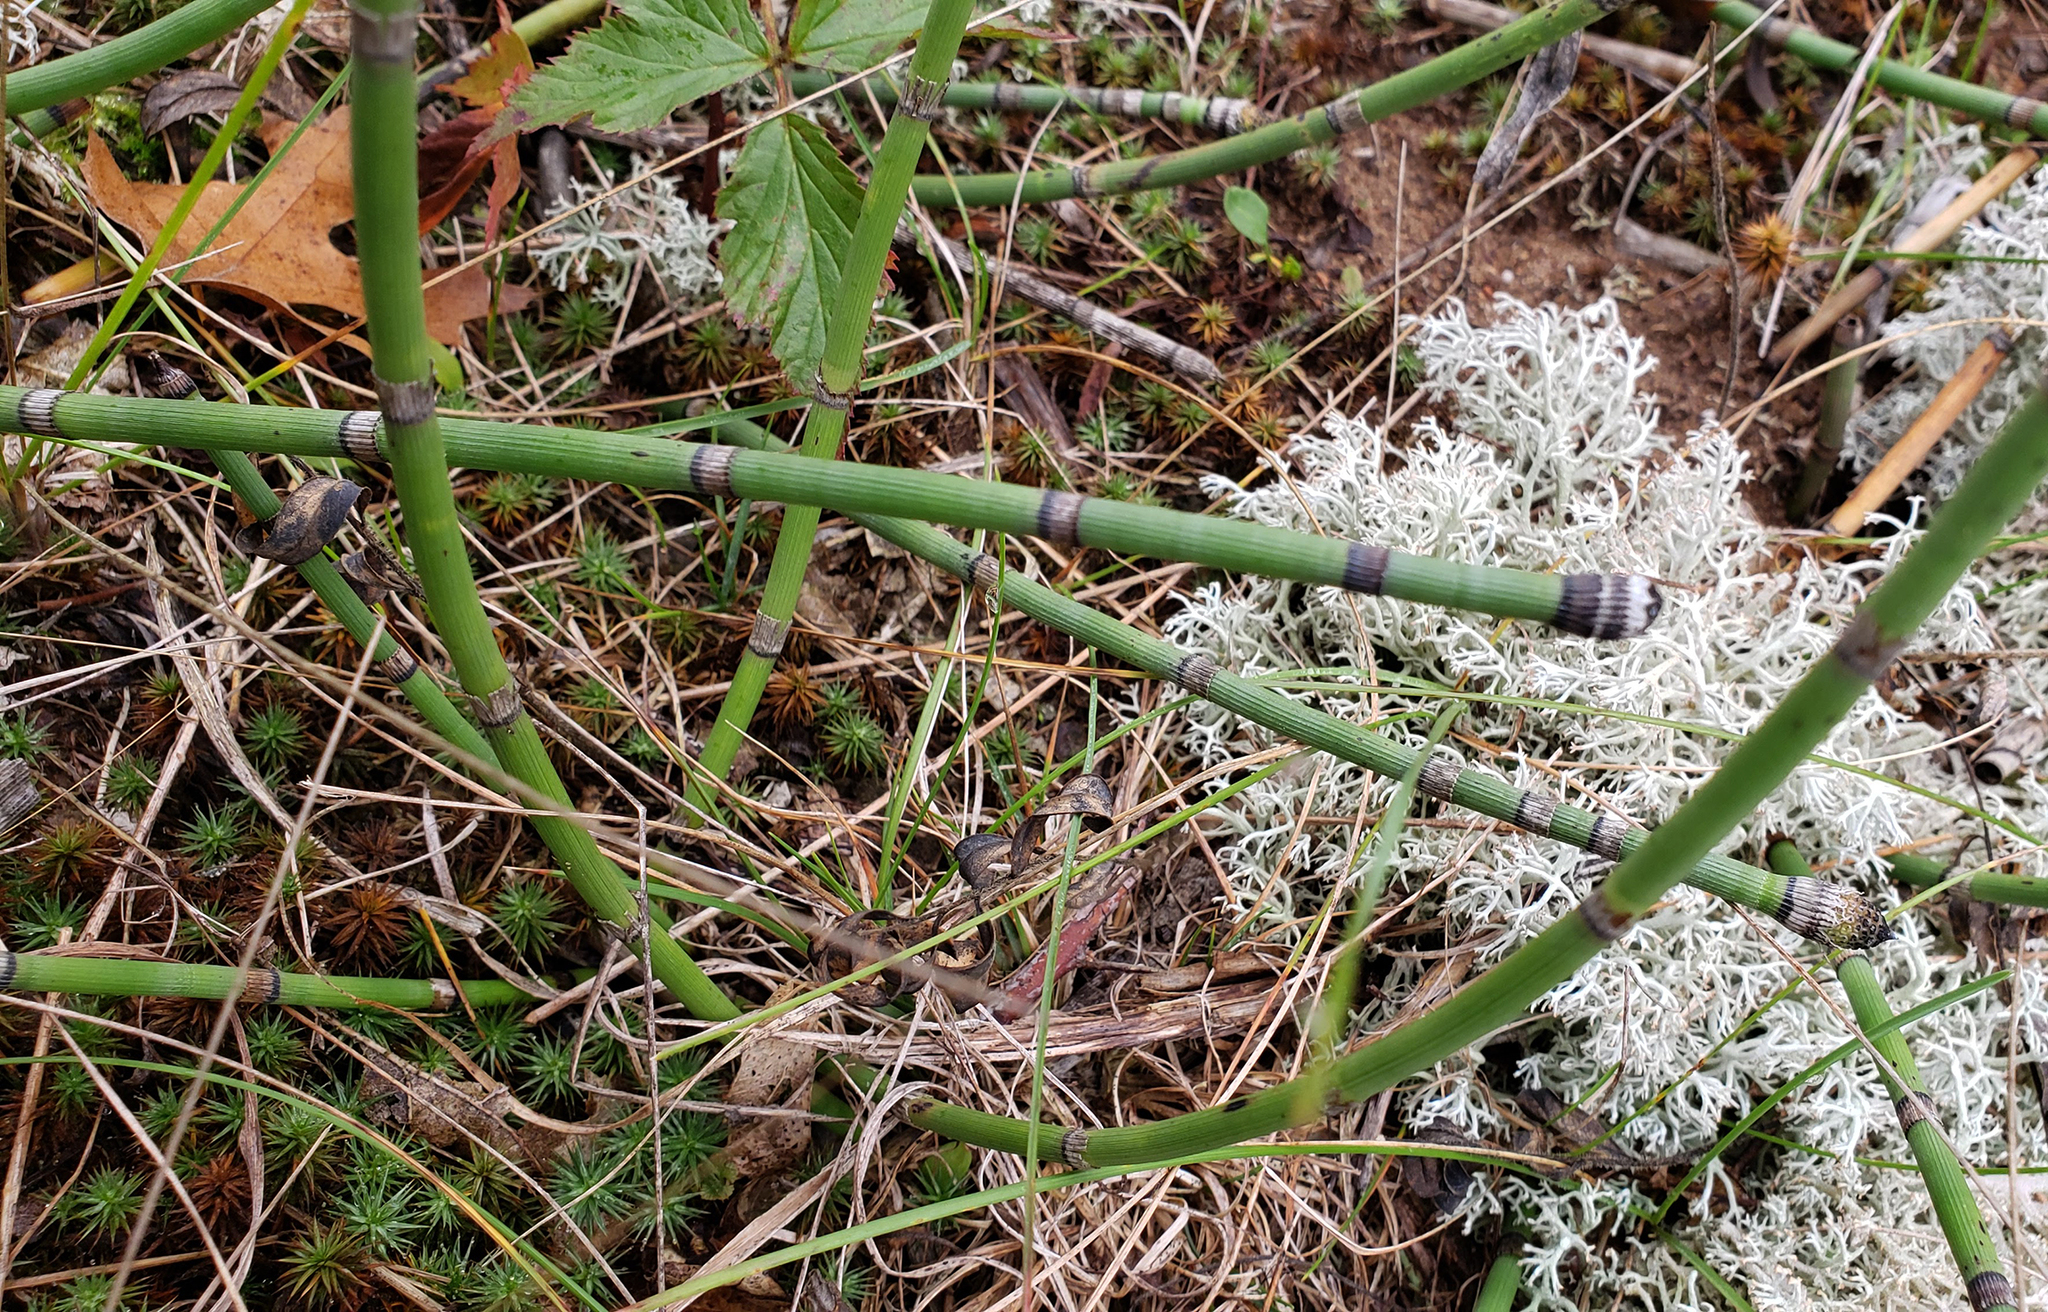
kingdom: Plantae
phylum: Tracheophyta
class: Polypodiopsida
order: Equisetales
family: Equisetaceae
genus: Equisetum
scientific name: Equisetum hyemale
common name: Rough horsetail
